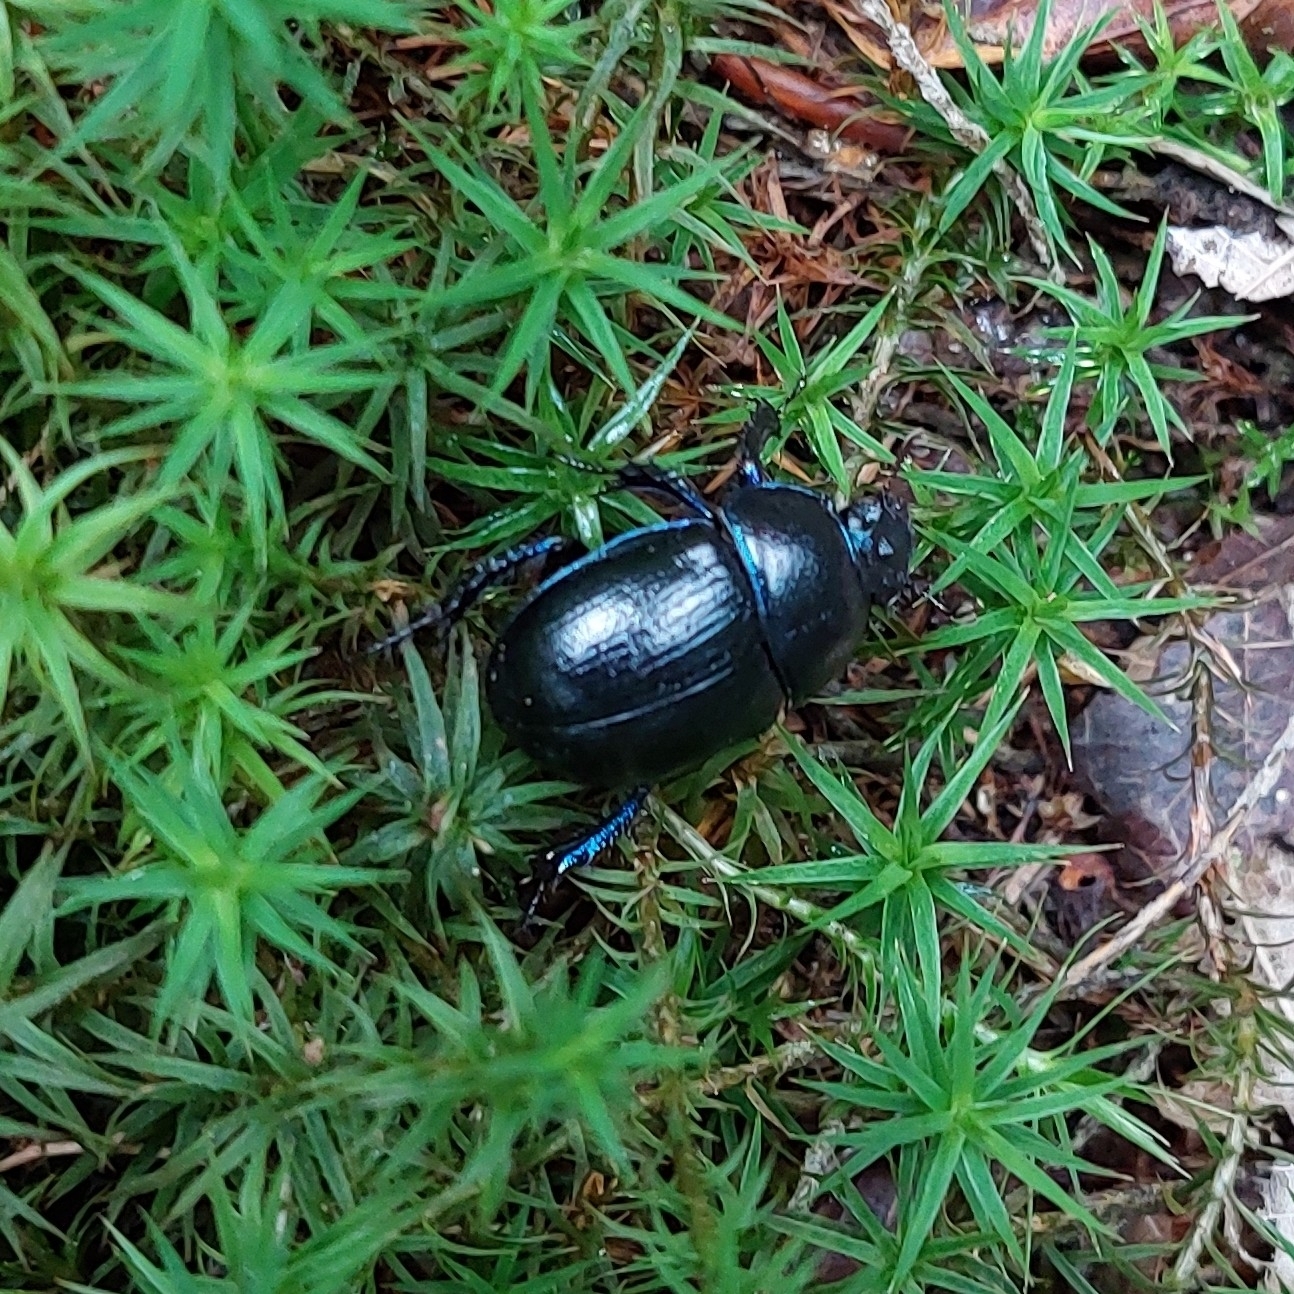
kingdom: Animalia
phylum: Arthropoda
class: Insecta
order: Coleoptera
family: Geotrupidae
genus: Anoplotrupes
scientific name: Anoplotrupes stercorosus
